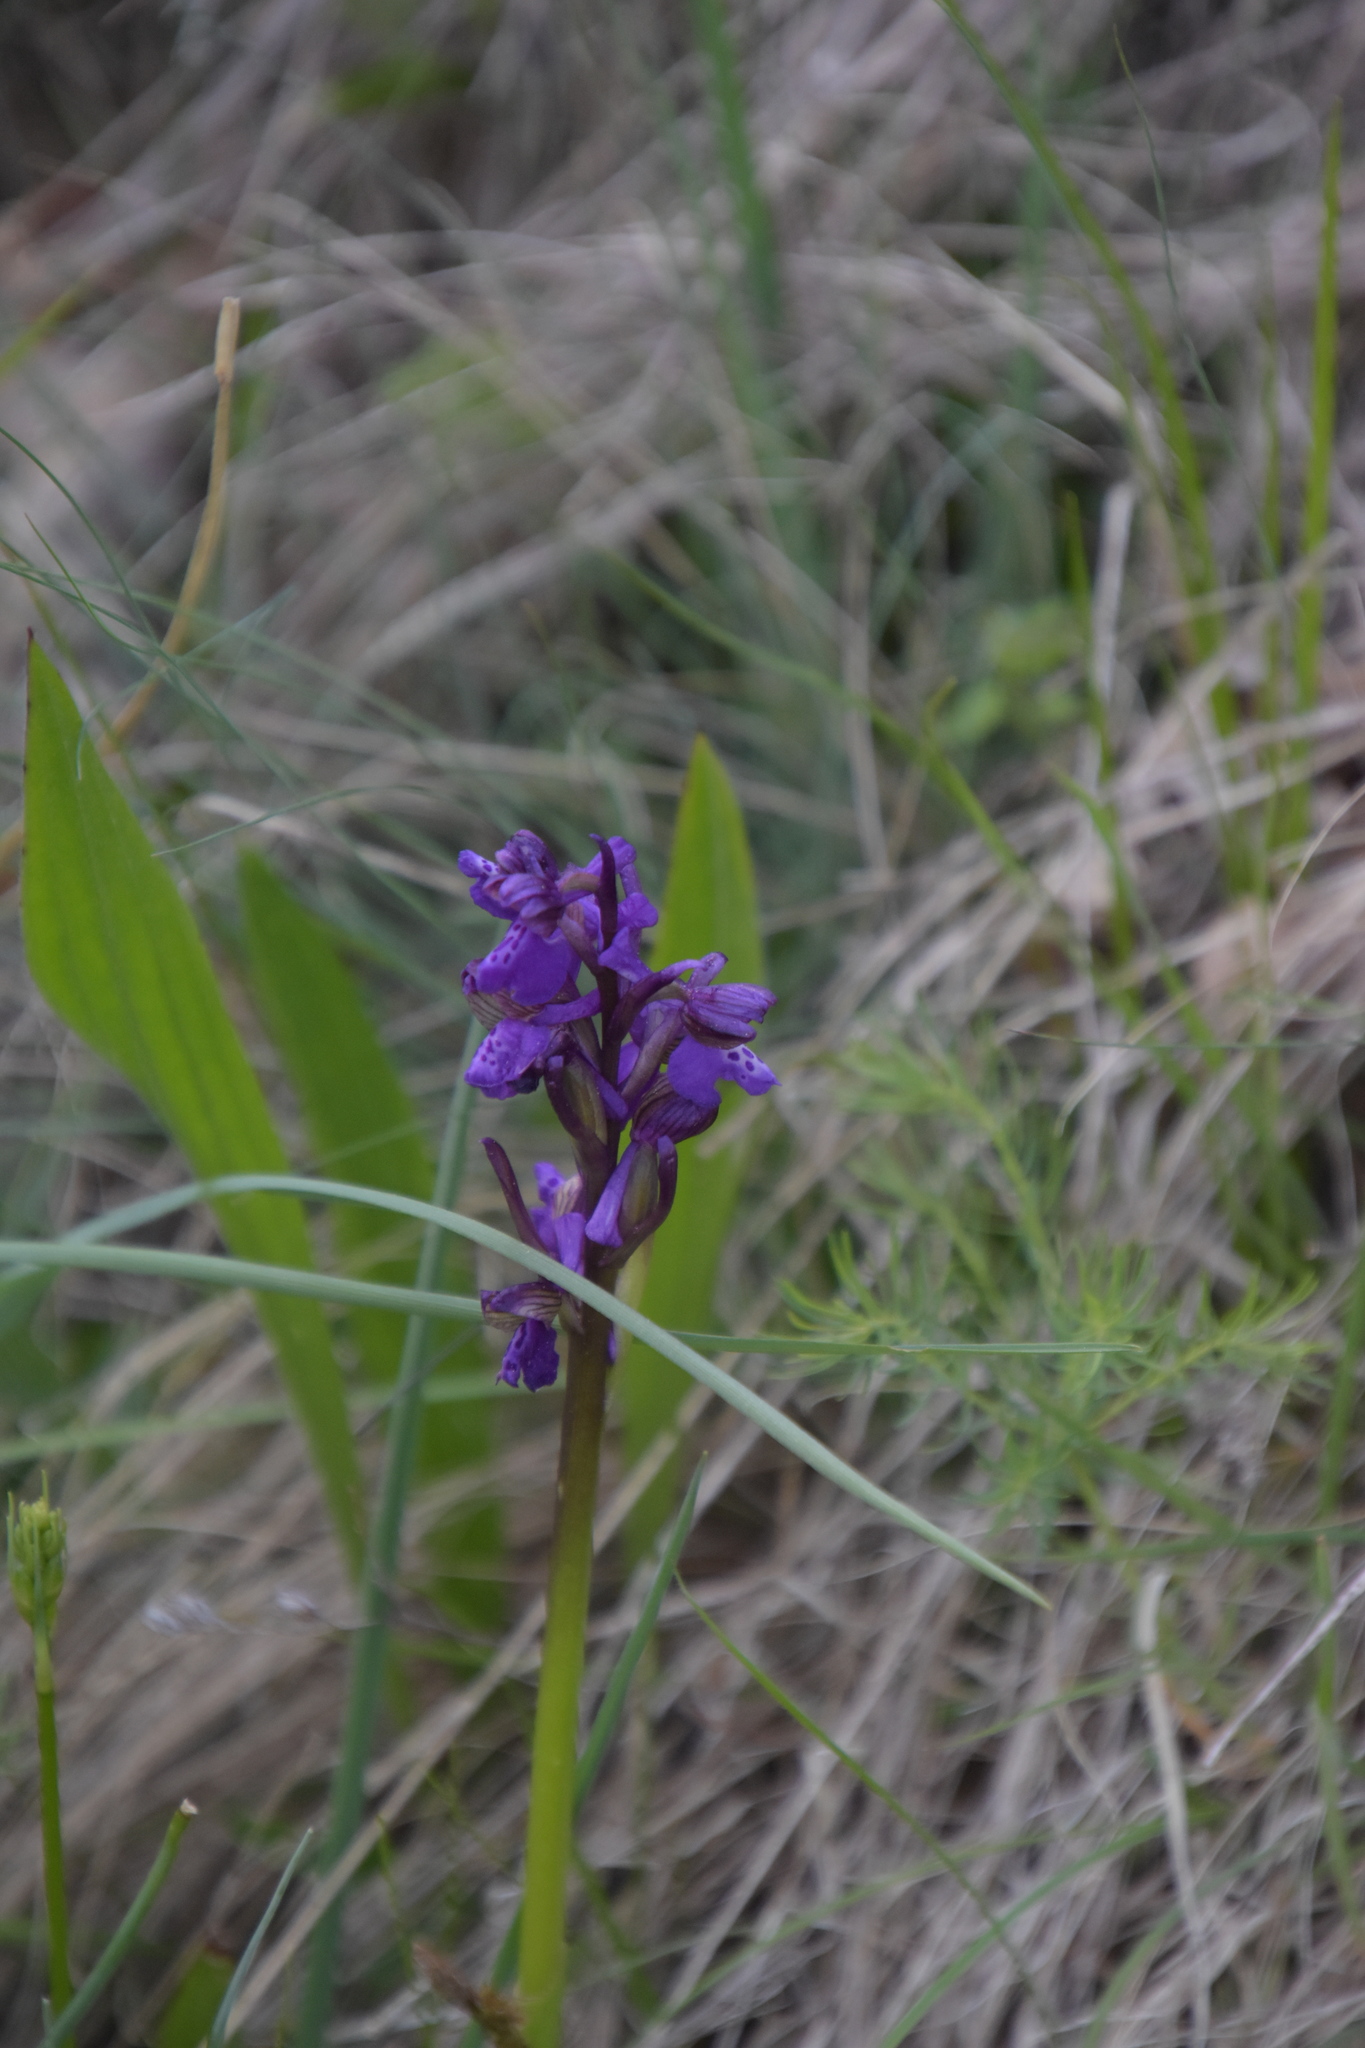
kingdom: Plantae
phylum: Tracheophyta
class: Liliopsida
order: Asparagales
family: Orchidaceae
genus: Anacamptis
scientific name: Anacamptis morio
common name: Green-winged orchid
